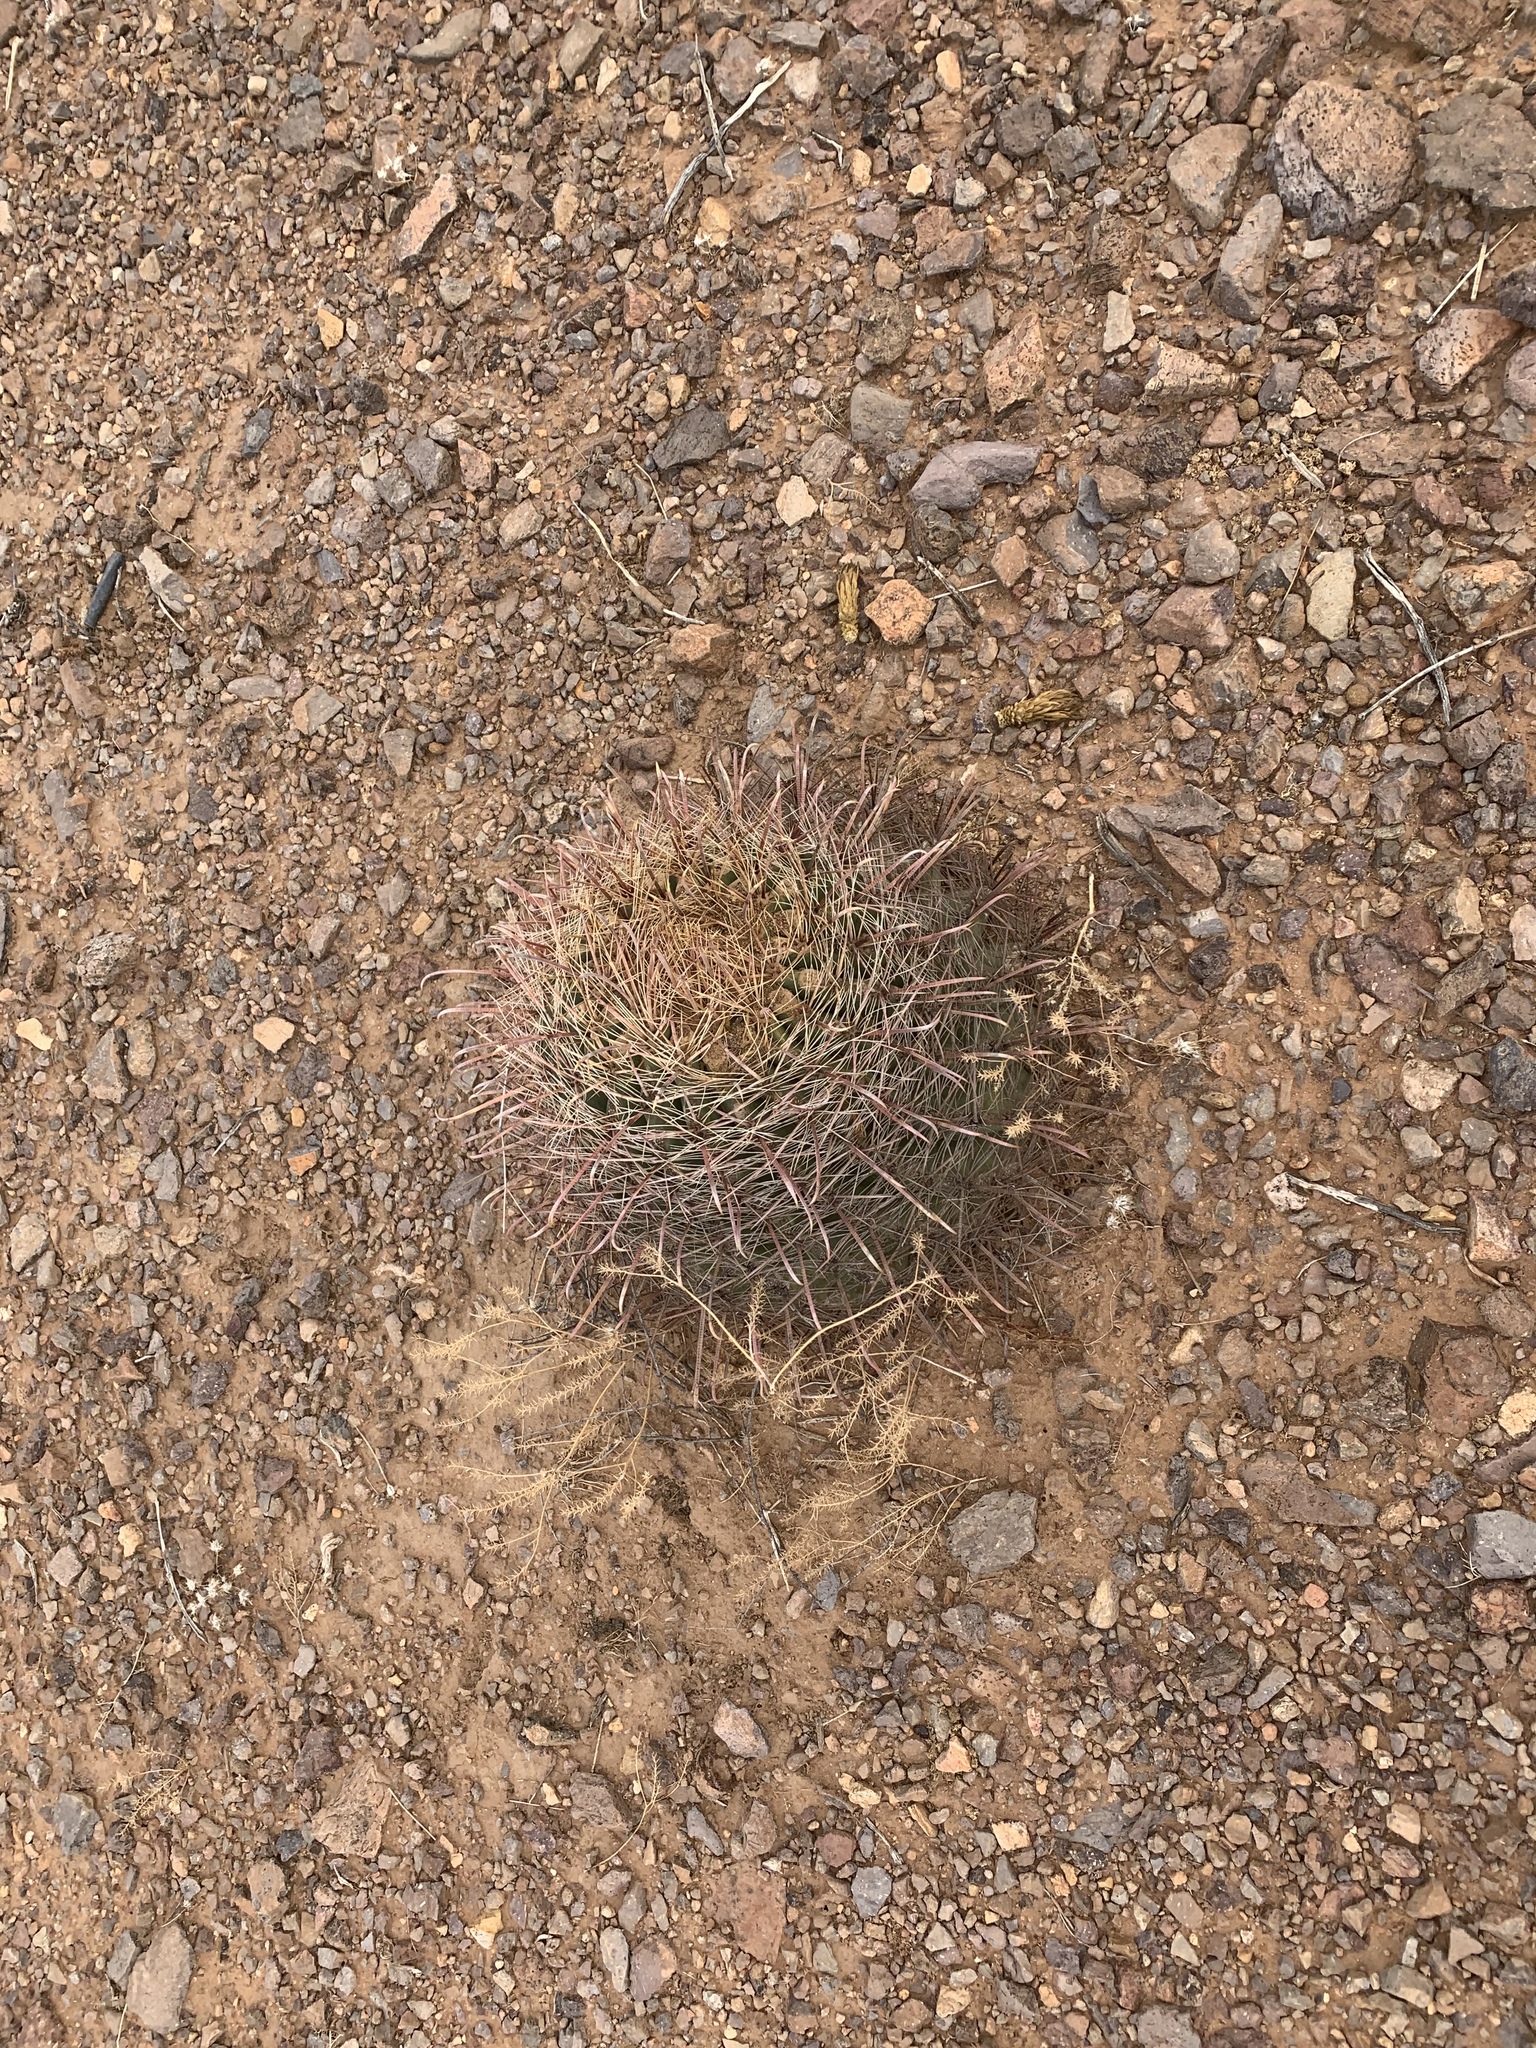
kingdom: Plantae
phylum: Tracheophyta
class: Magnoliopsida
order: Caryophyllales
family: Cactaceae
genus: Ferocactus
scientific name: Ferocactus wislizeni
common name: Candy barrel cactus
